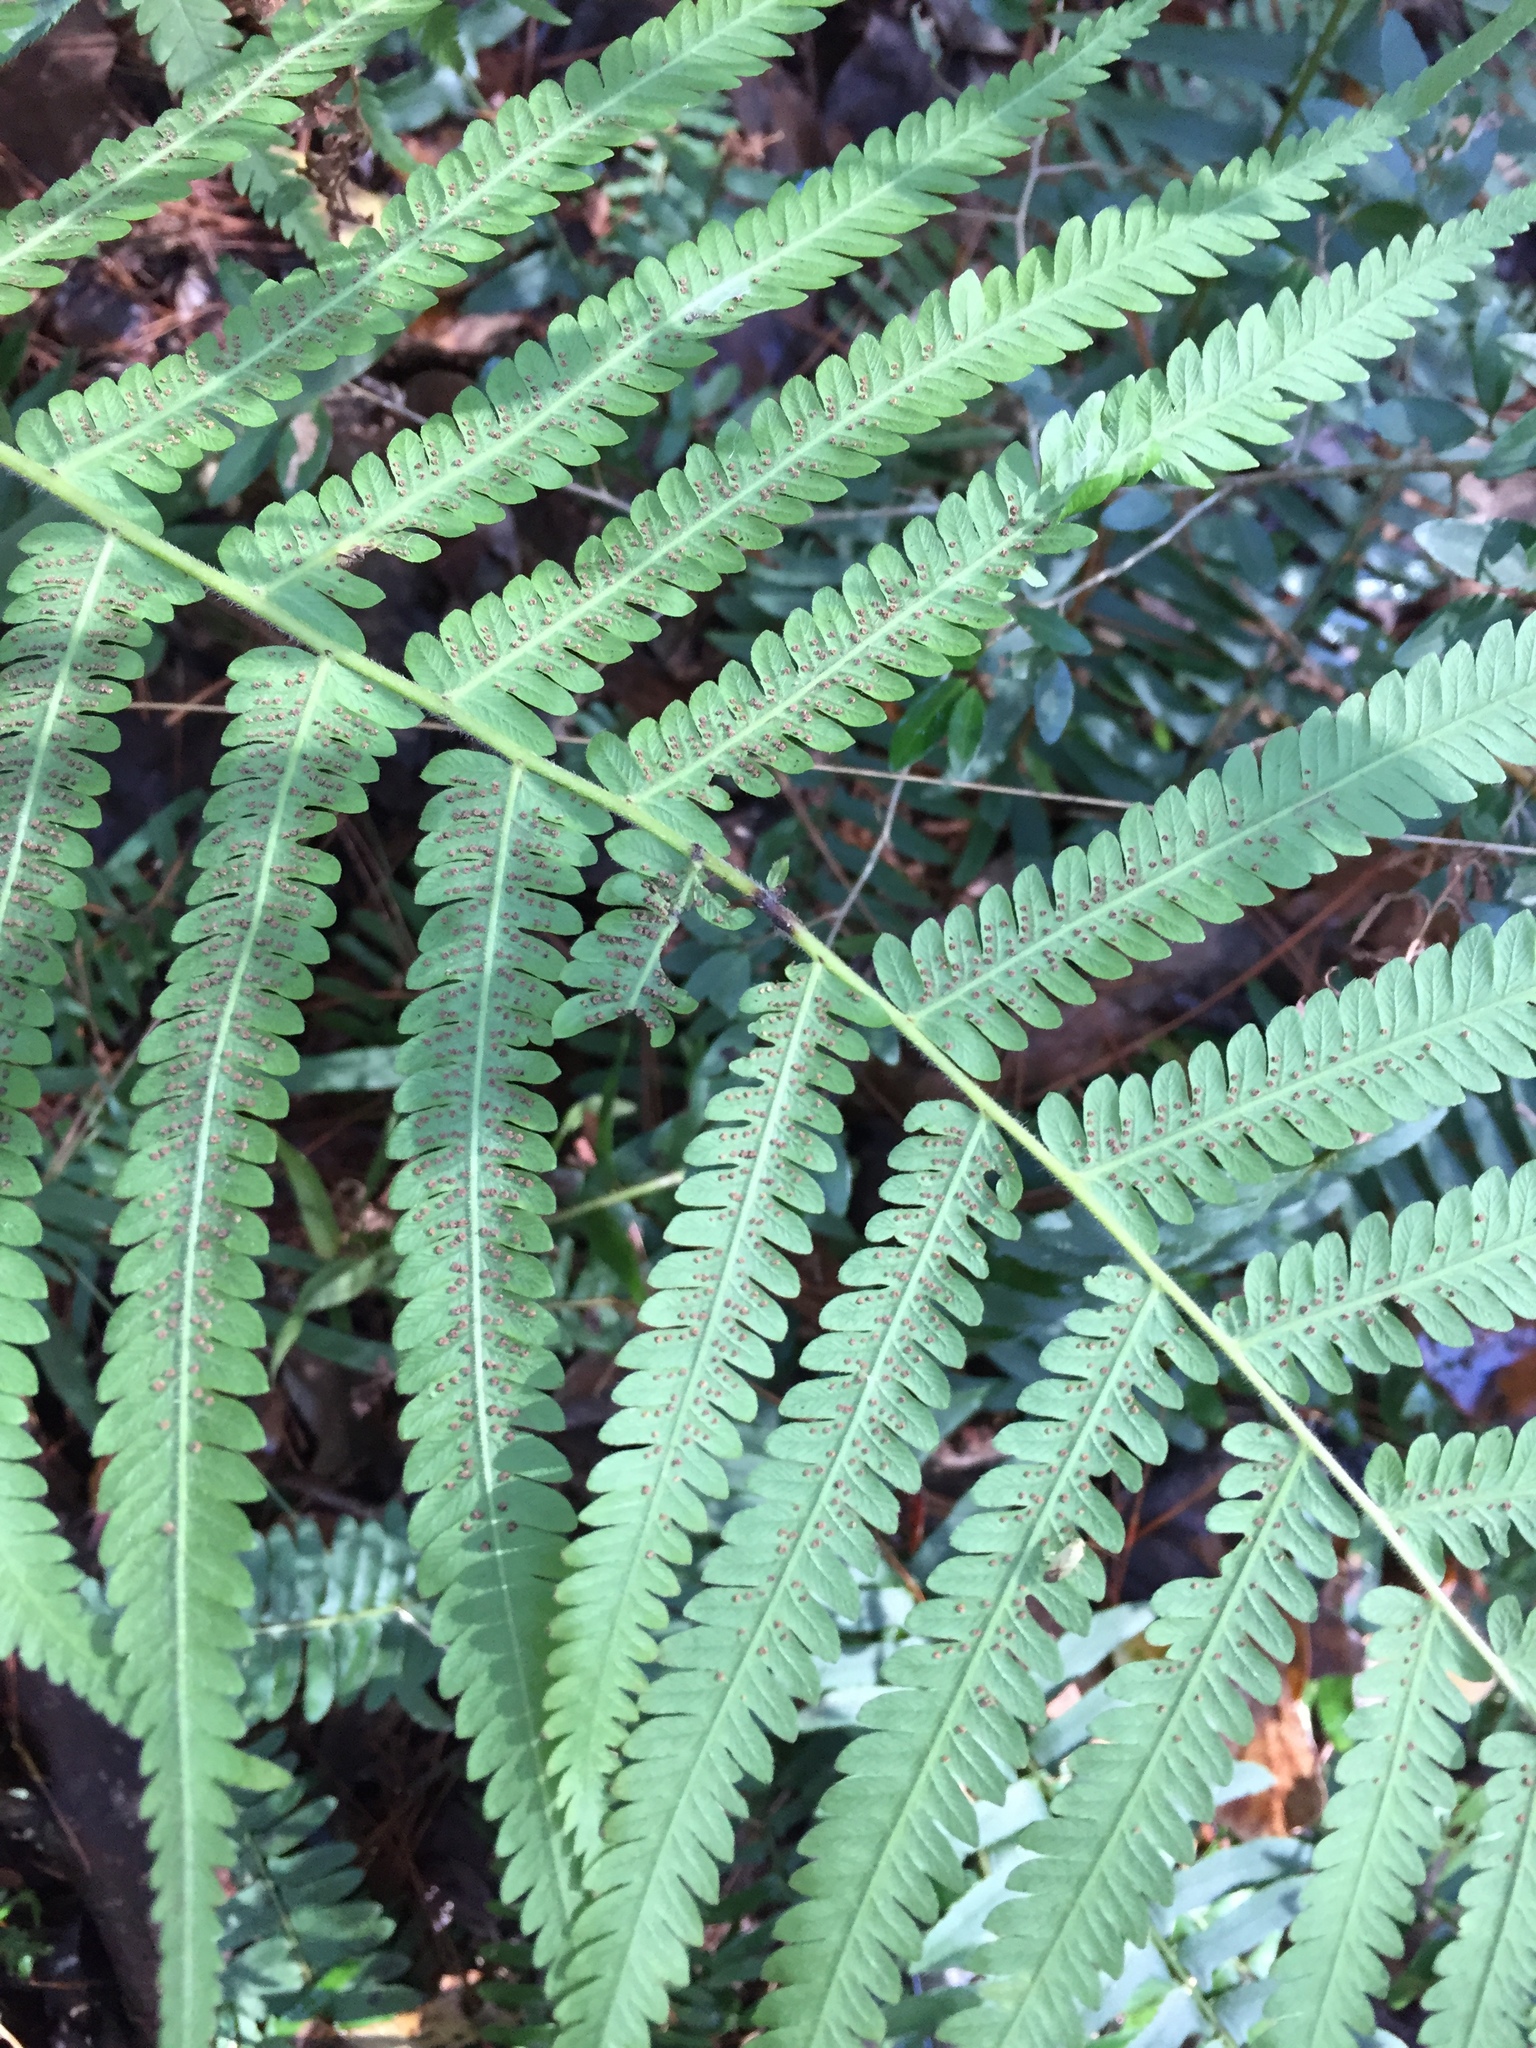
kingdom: Plantae
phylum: Tracheophyta
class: Polypodiopsida
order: Polypodiales
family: Thelypteridaceae
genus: Pelazoneuron
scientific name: Pelazoneuron kunthii
